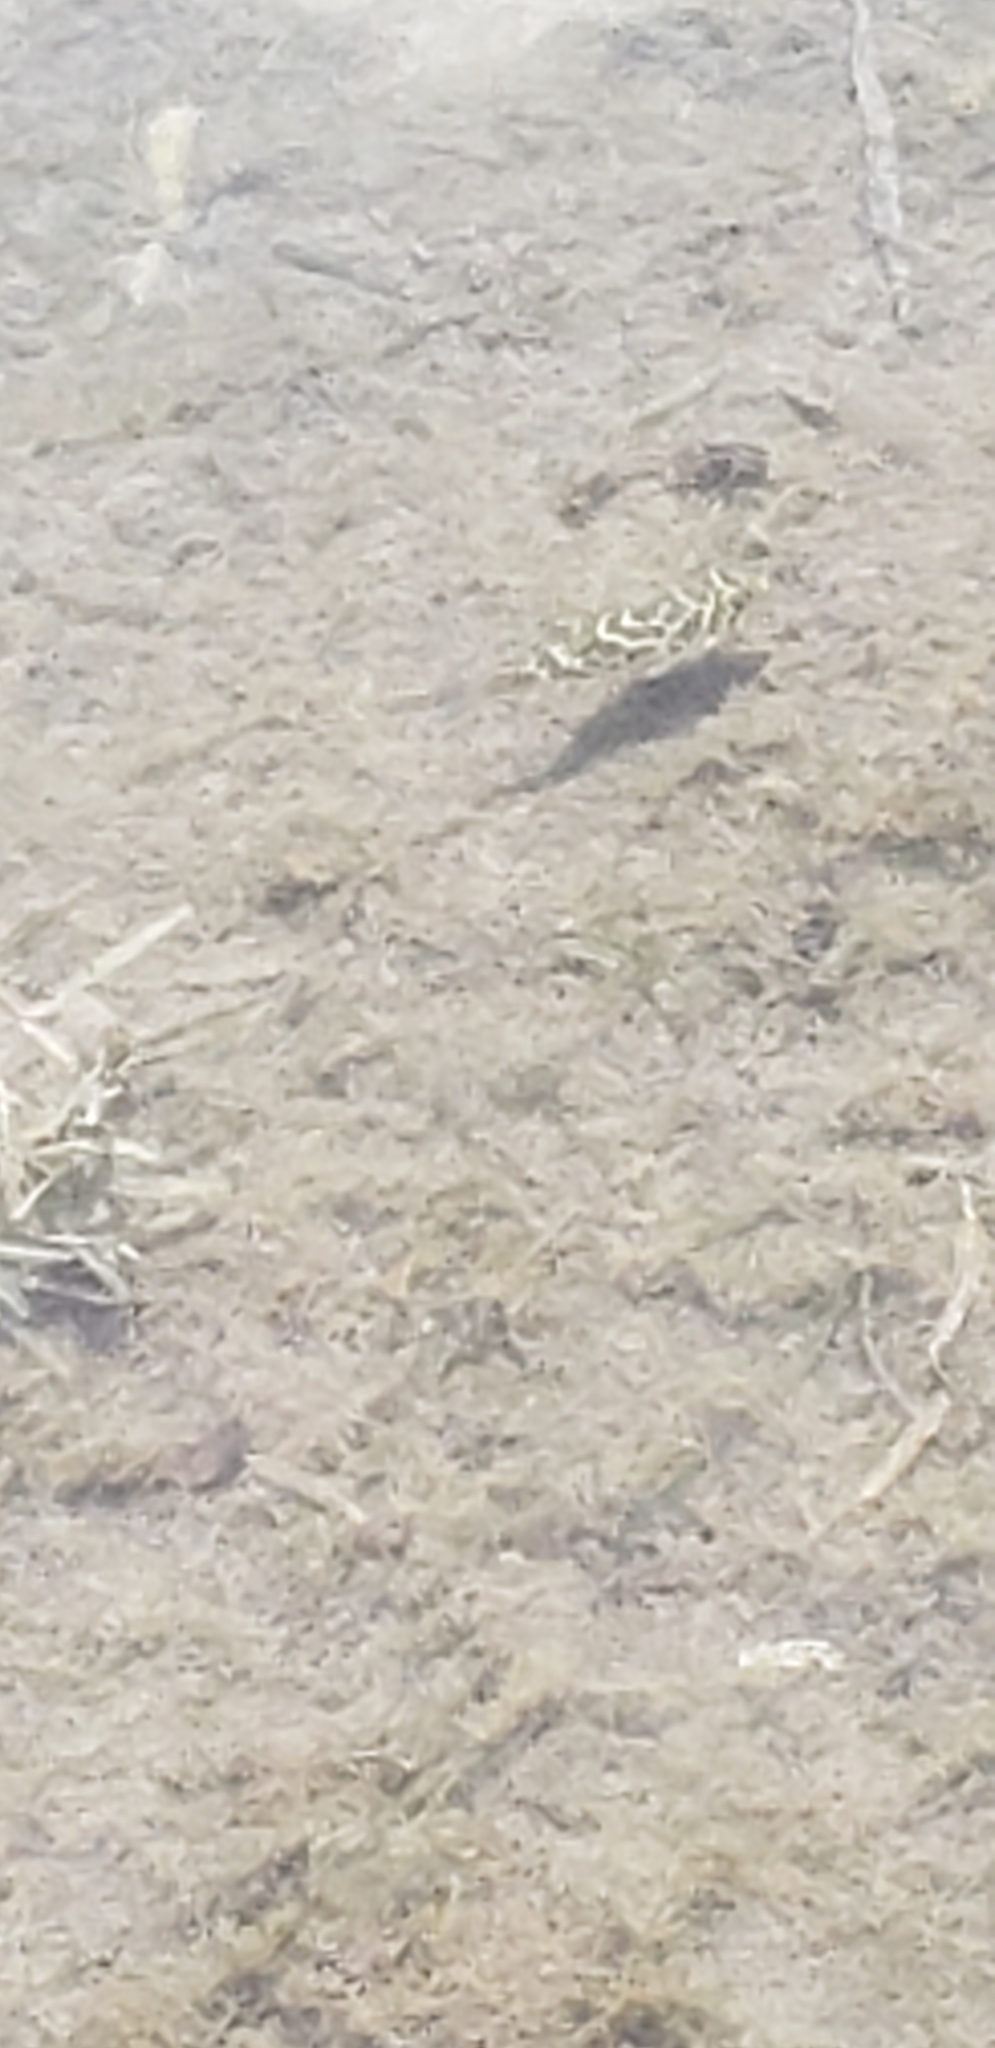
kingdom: Animalia
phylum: Chordata
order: Tetraodontiformes
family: Tetraodontidae
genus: Sphoeroides
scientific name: Sphoeroides testudineus
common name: Checkered puffer
